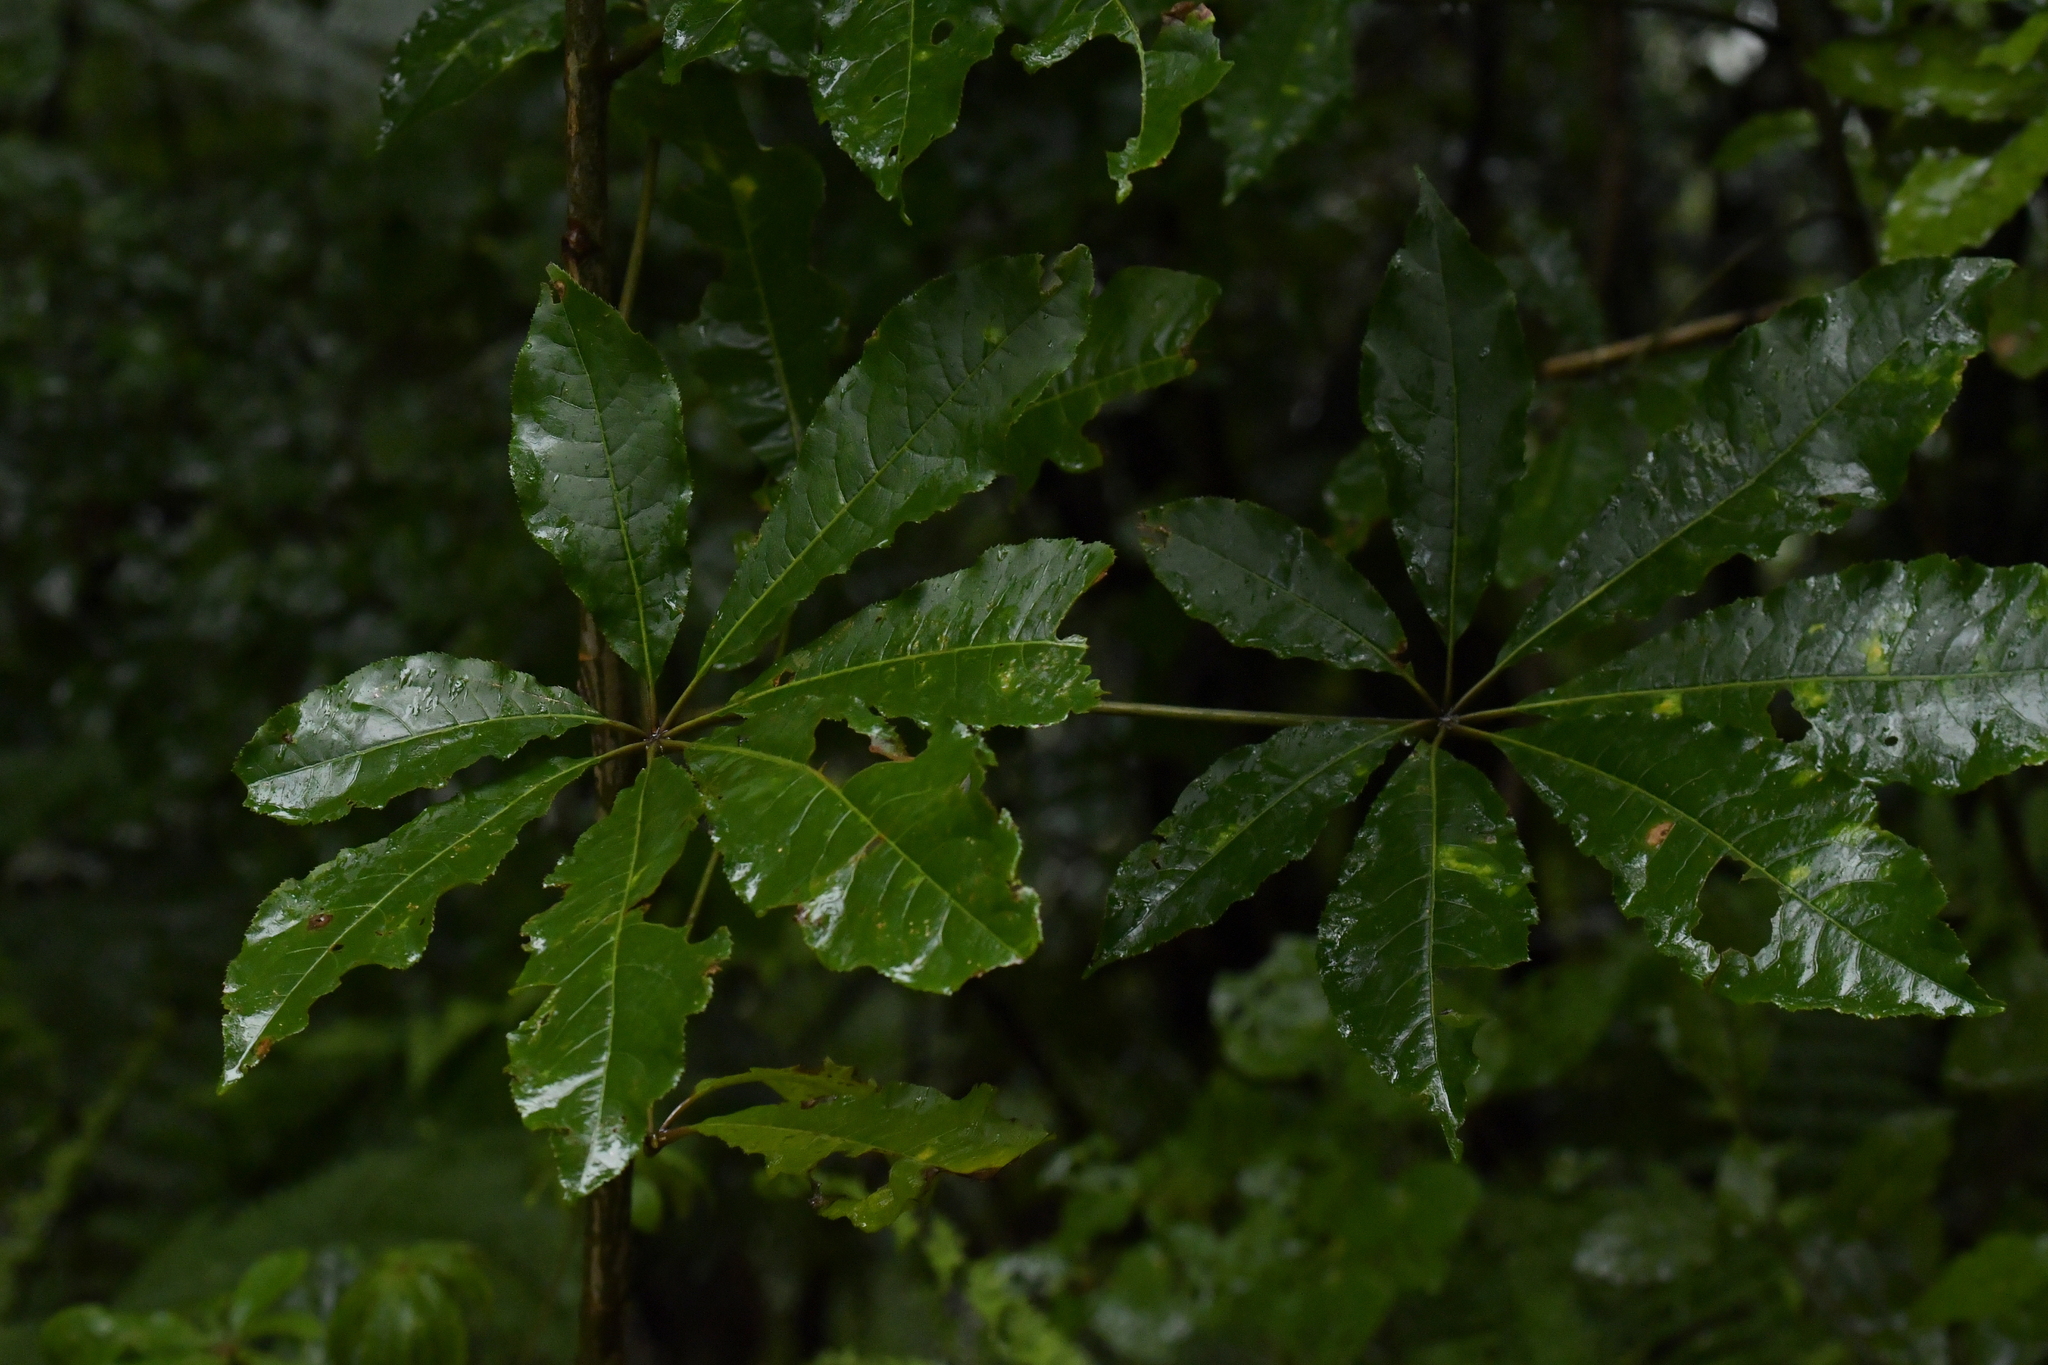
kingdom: Plantae
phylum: Tracheophyta
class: Magnoliopsida
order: Apiales
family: Araliaceae
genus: Schefflera
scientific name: Schefflera digitata
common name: Pate
